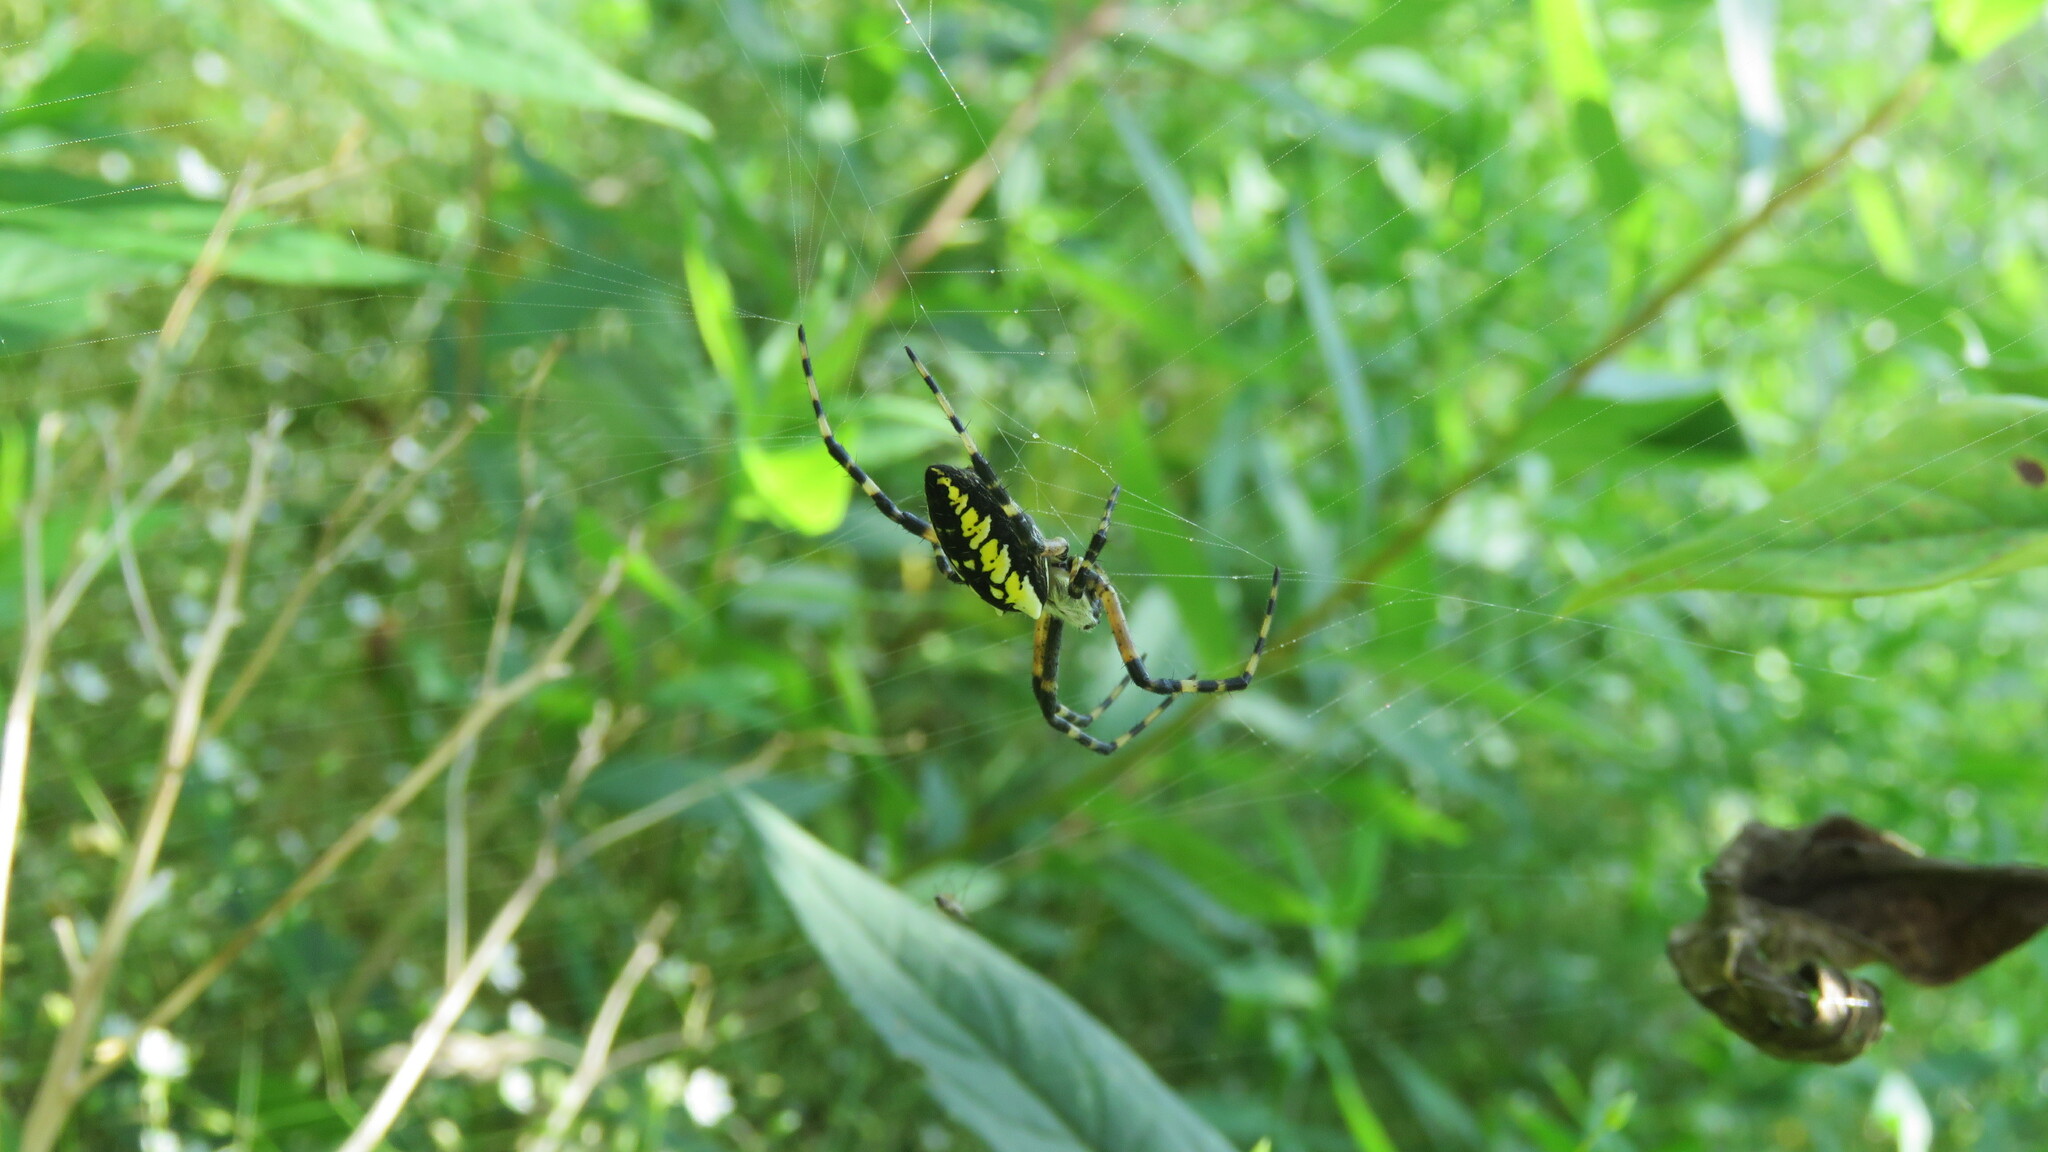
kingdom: Animalia
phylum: Arthropoda
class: Arachnida
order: Araneae
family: Araneidae
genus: Argiope
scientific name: Argiope aurantia
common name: Orb weavers
